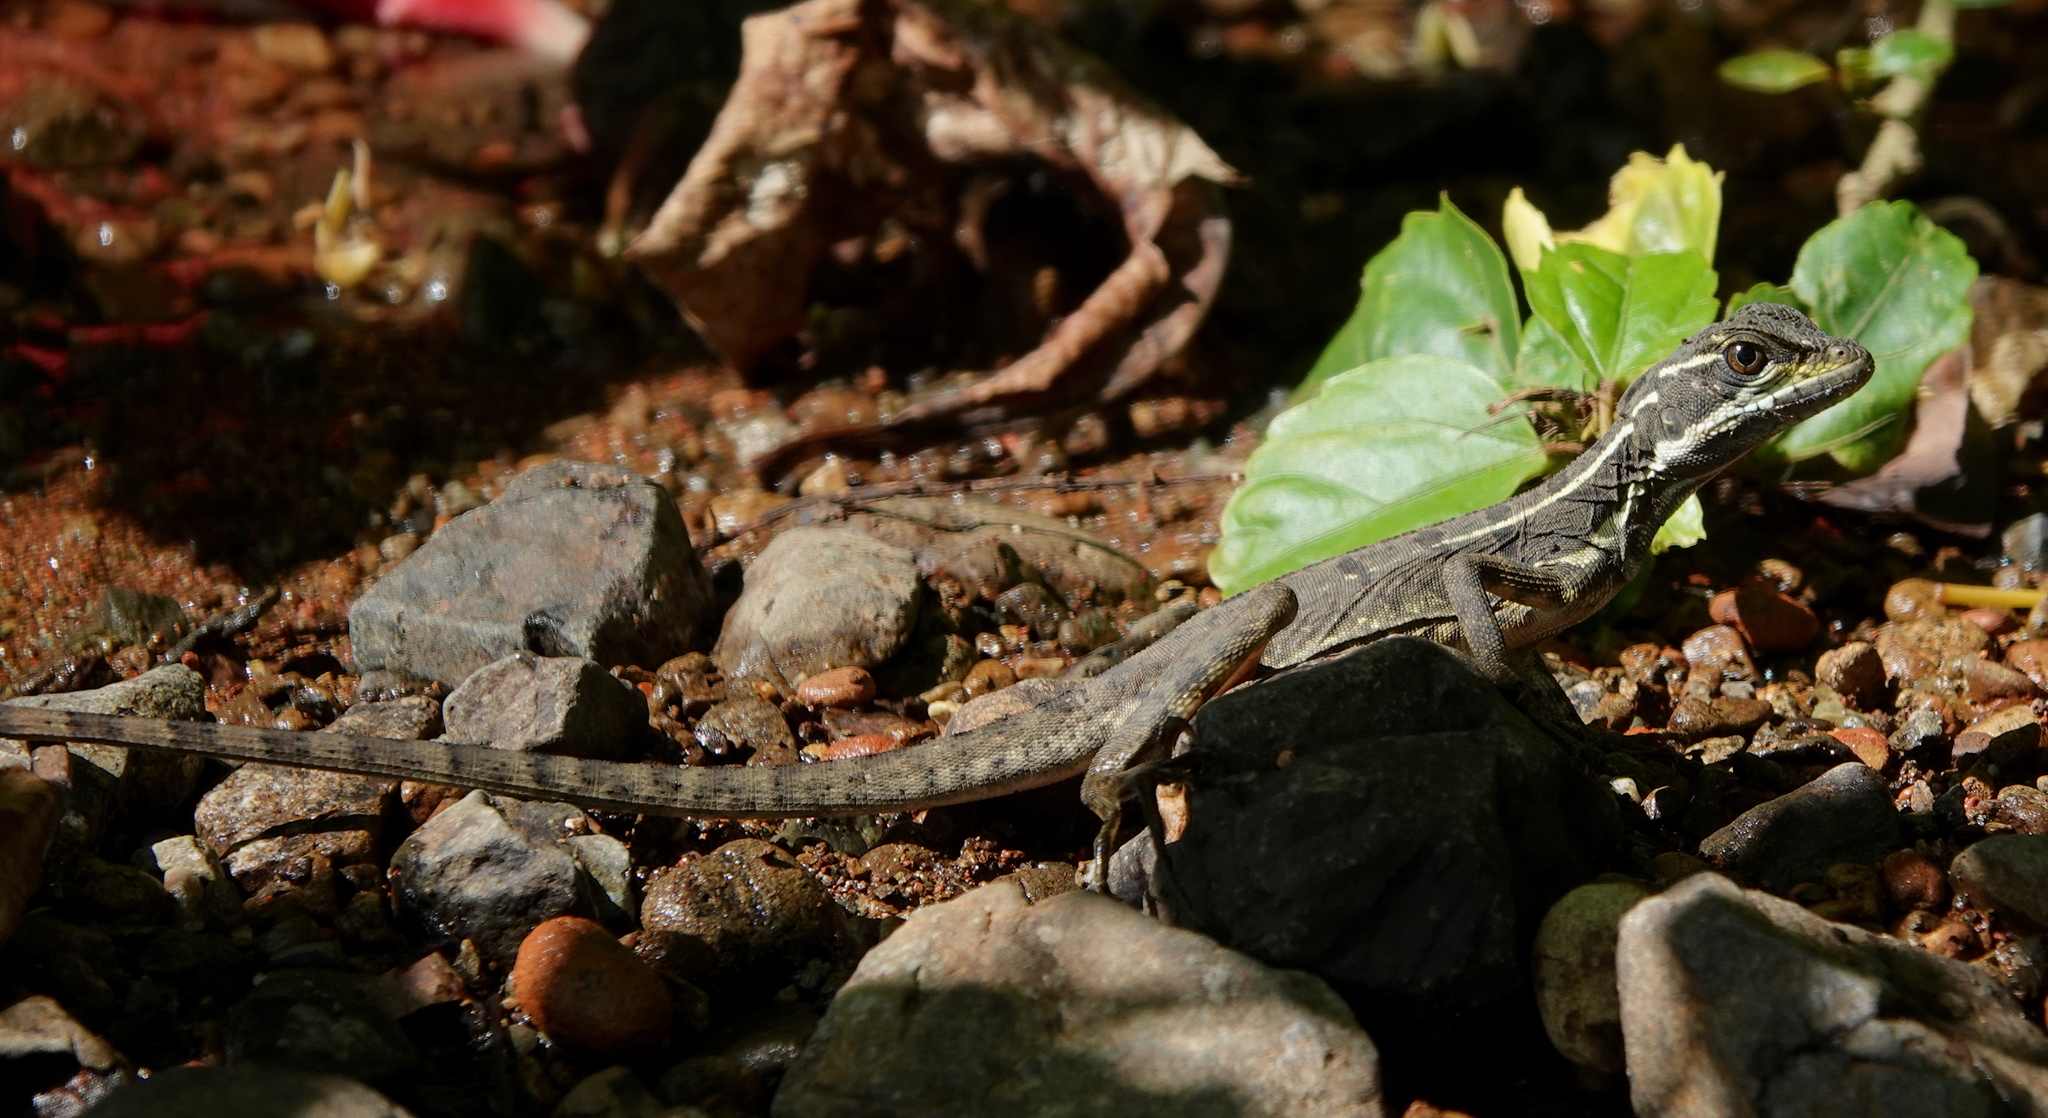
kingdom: Animalia
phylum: Chordata
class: Squamata
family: Corytophanidae
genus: Basiliscus
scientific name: Basiliscus basiliscus
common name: Common basilisk
